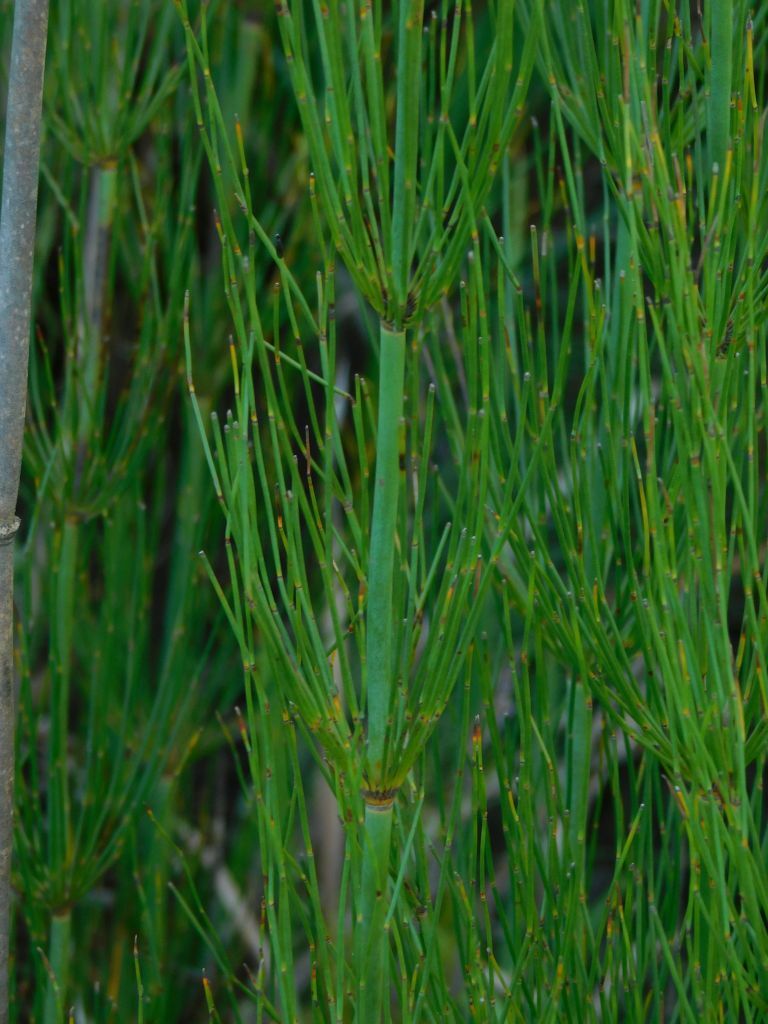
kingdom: Plantae
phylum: Tracheophyta
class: Liliopsida
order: Poales
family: Restionaceae
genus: Elegia
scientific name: Elegia capensis
